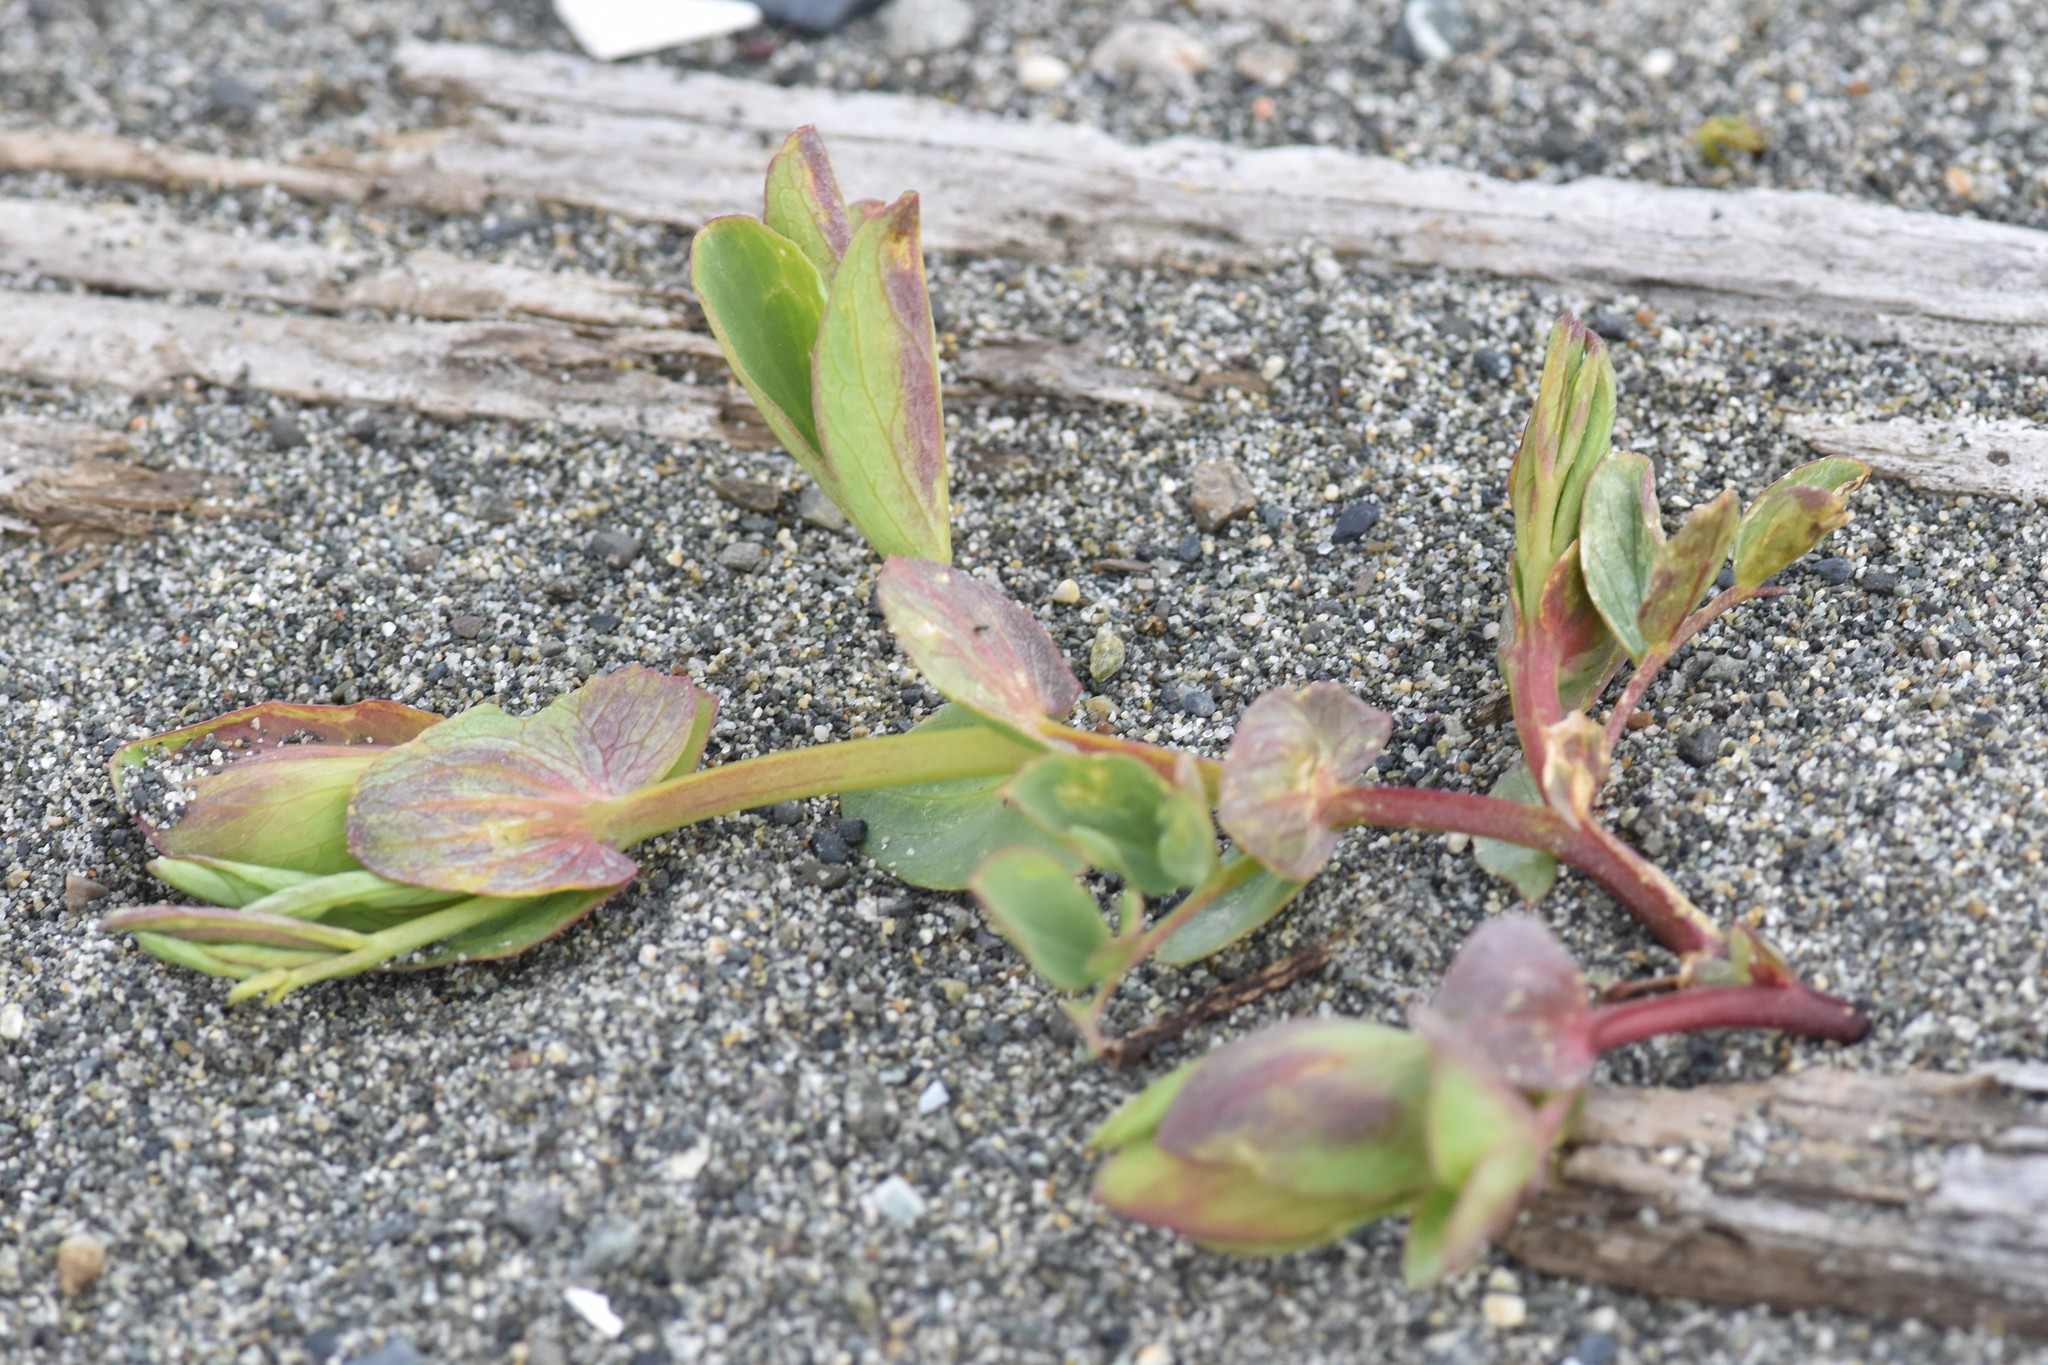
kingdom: Plantae
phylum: Tracheophyta
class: Magnoliopsida
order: Fabales
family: Fabaceae
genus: Lathyrus
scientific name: Lathyrus japonicus
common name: Sea pea
